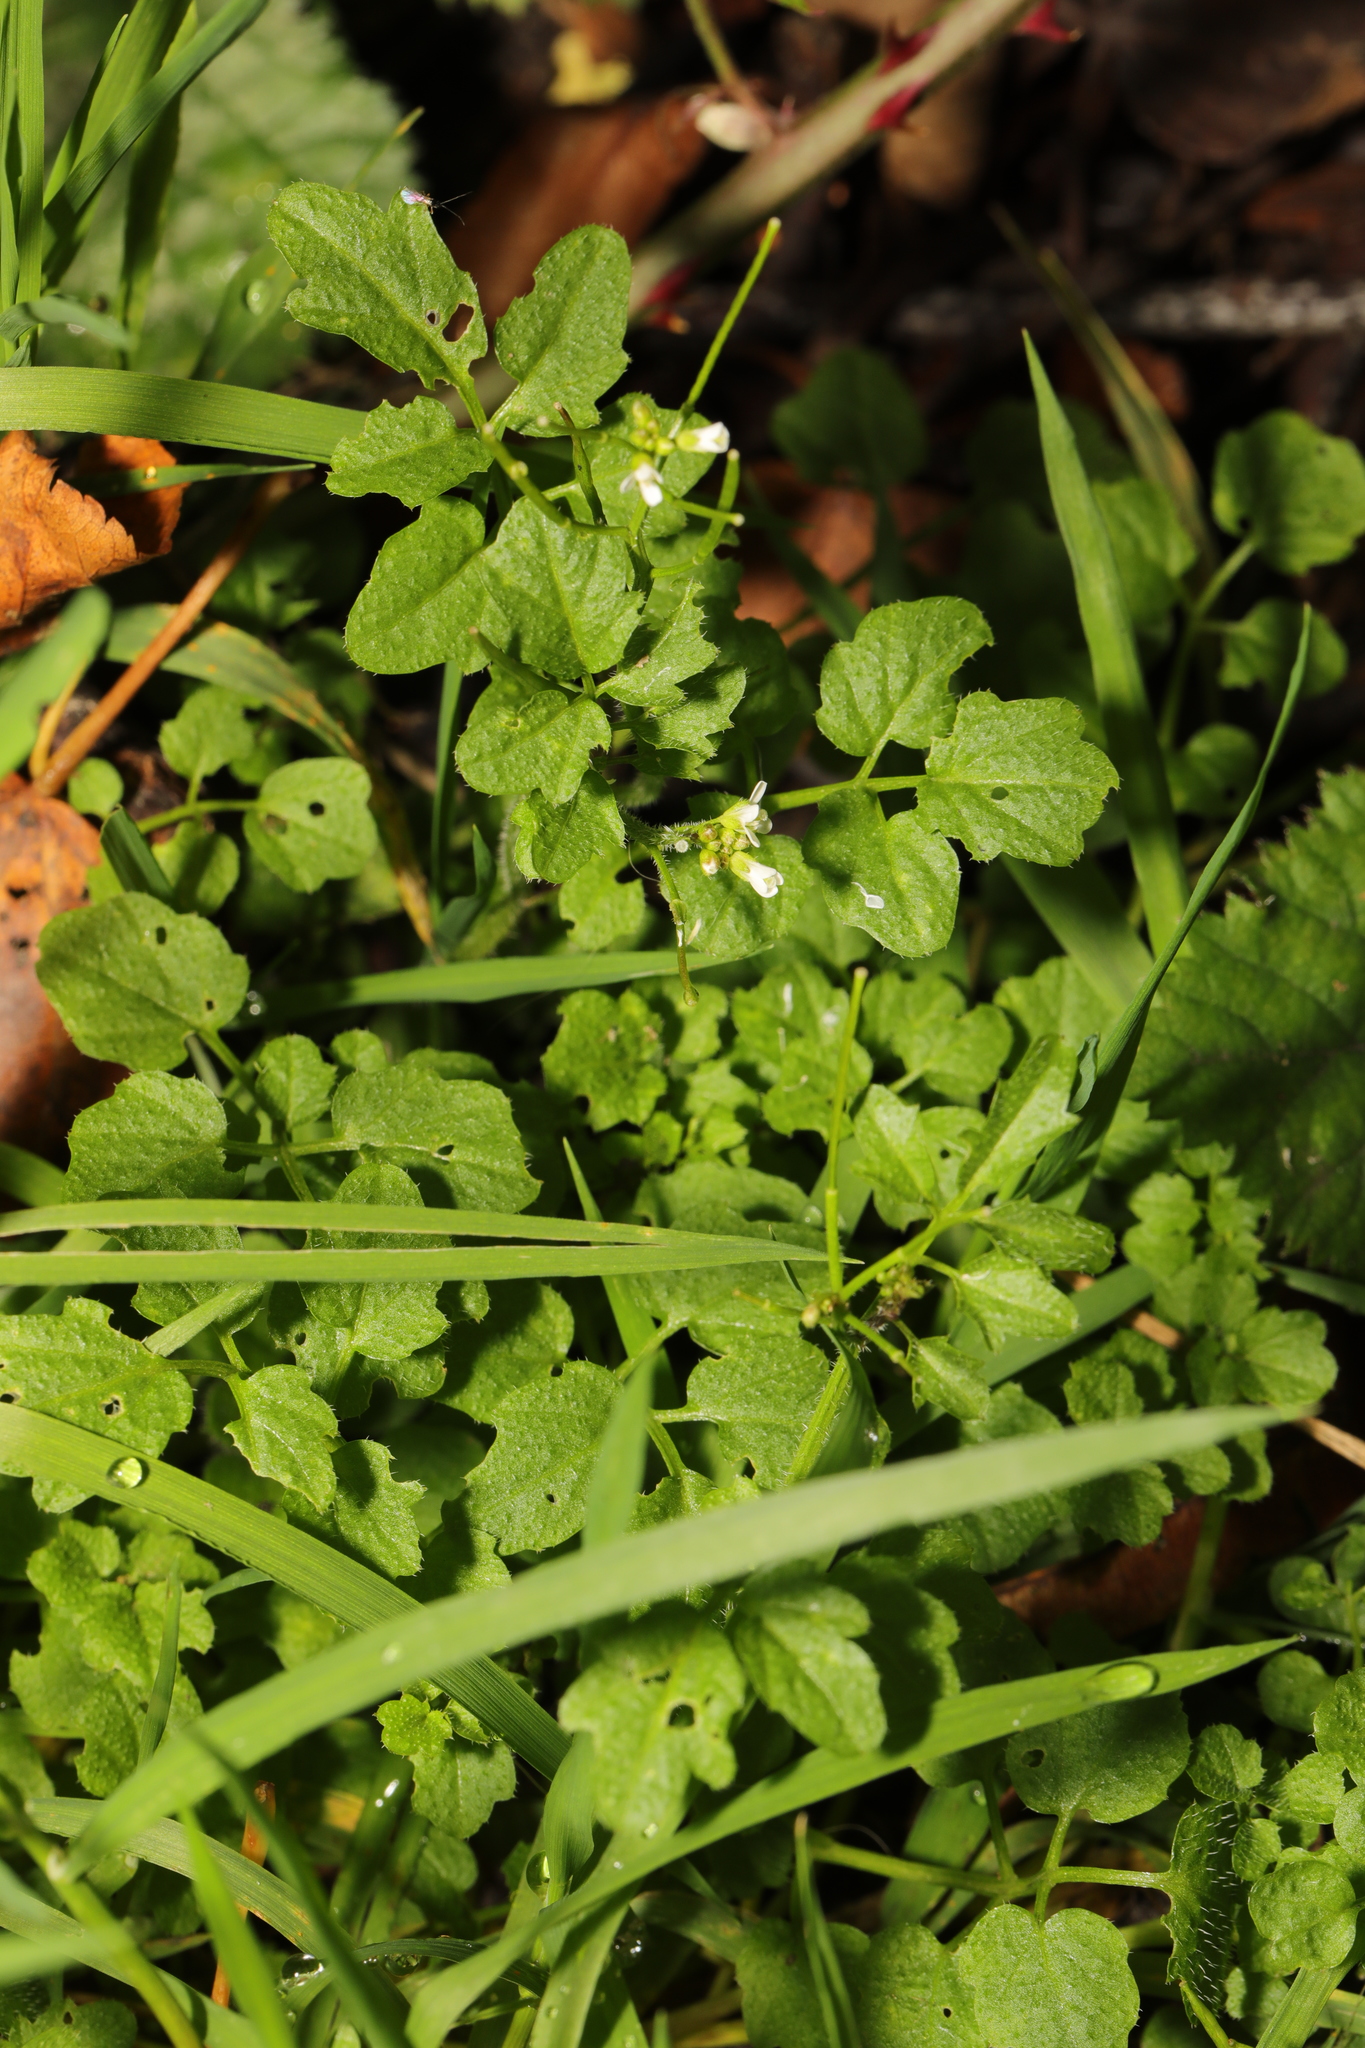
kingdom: Plantae
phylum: Tracheophyta
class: Magnoliopsida
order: Brassicales
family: Brassicaceae
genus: Cardamine
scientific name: Cardamine hirsuta
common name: Hairy bittercress
